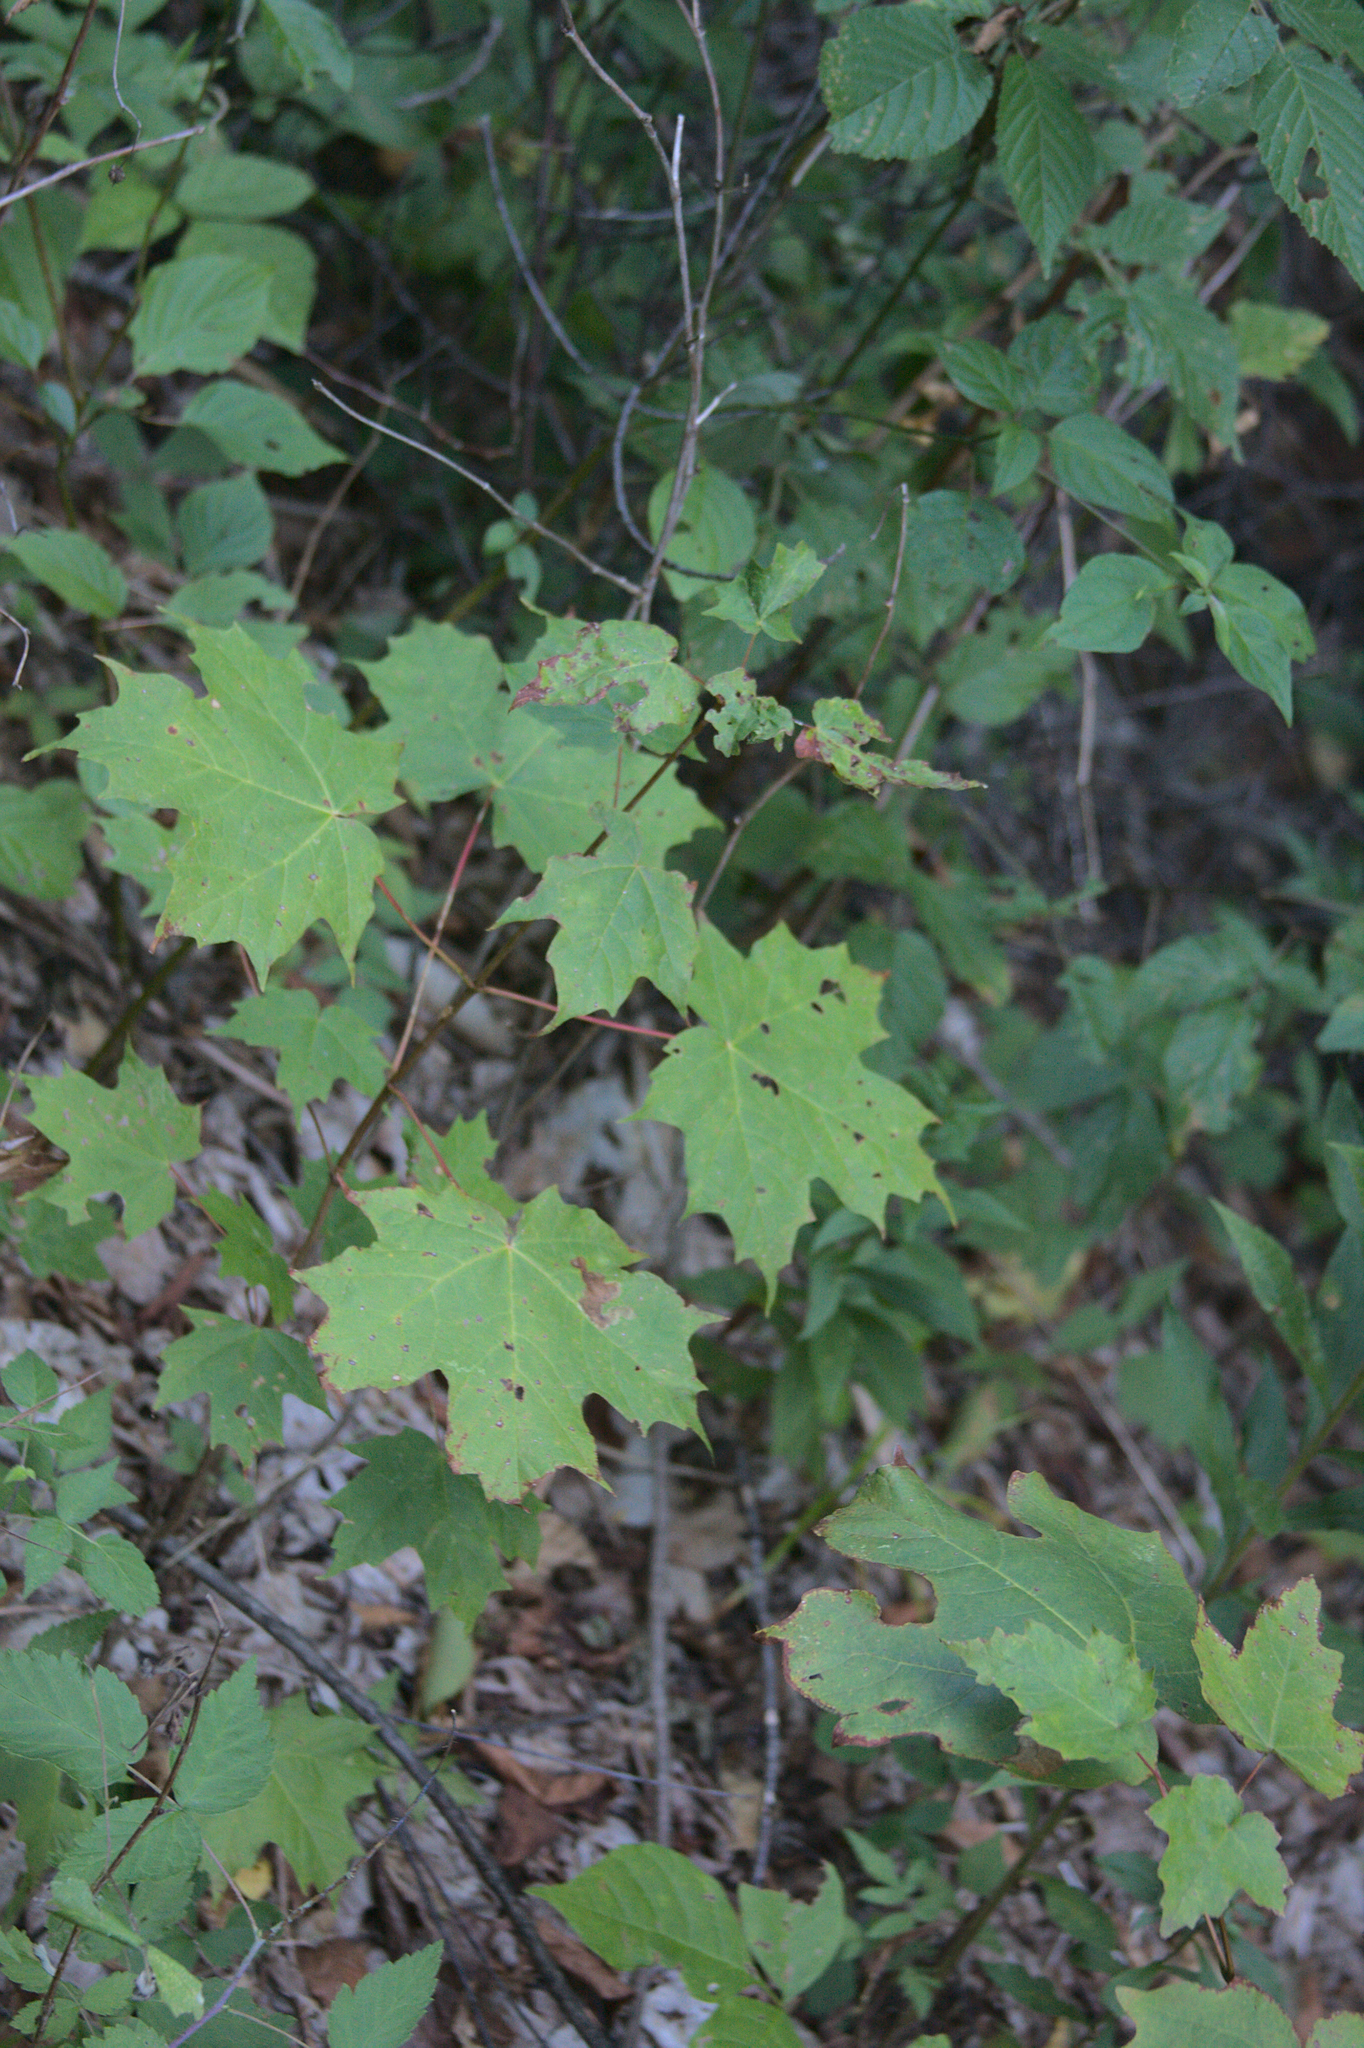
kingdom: Plantae
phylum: Tracheophyta
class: Magnoliopsida
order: Sapindales
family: Sapindaceae
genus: Acer
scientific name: Acer saccharum
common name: Sugar maple
